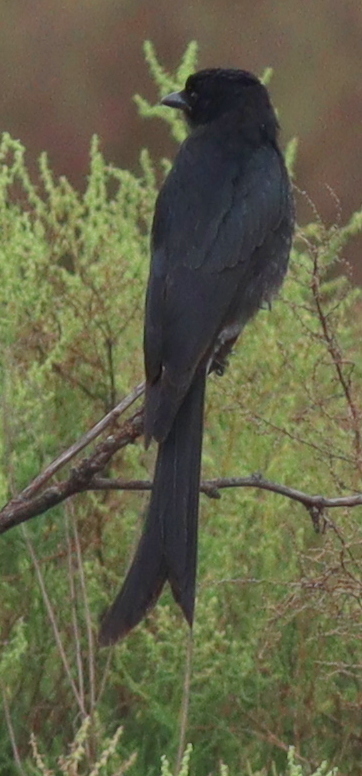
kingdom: Animalia
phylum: Chordata
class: Aves
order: Passeriformes
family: Dicruridae
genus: Dicrurus
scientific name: Dicrurus macrocercus
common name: Black drongo
